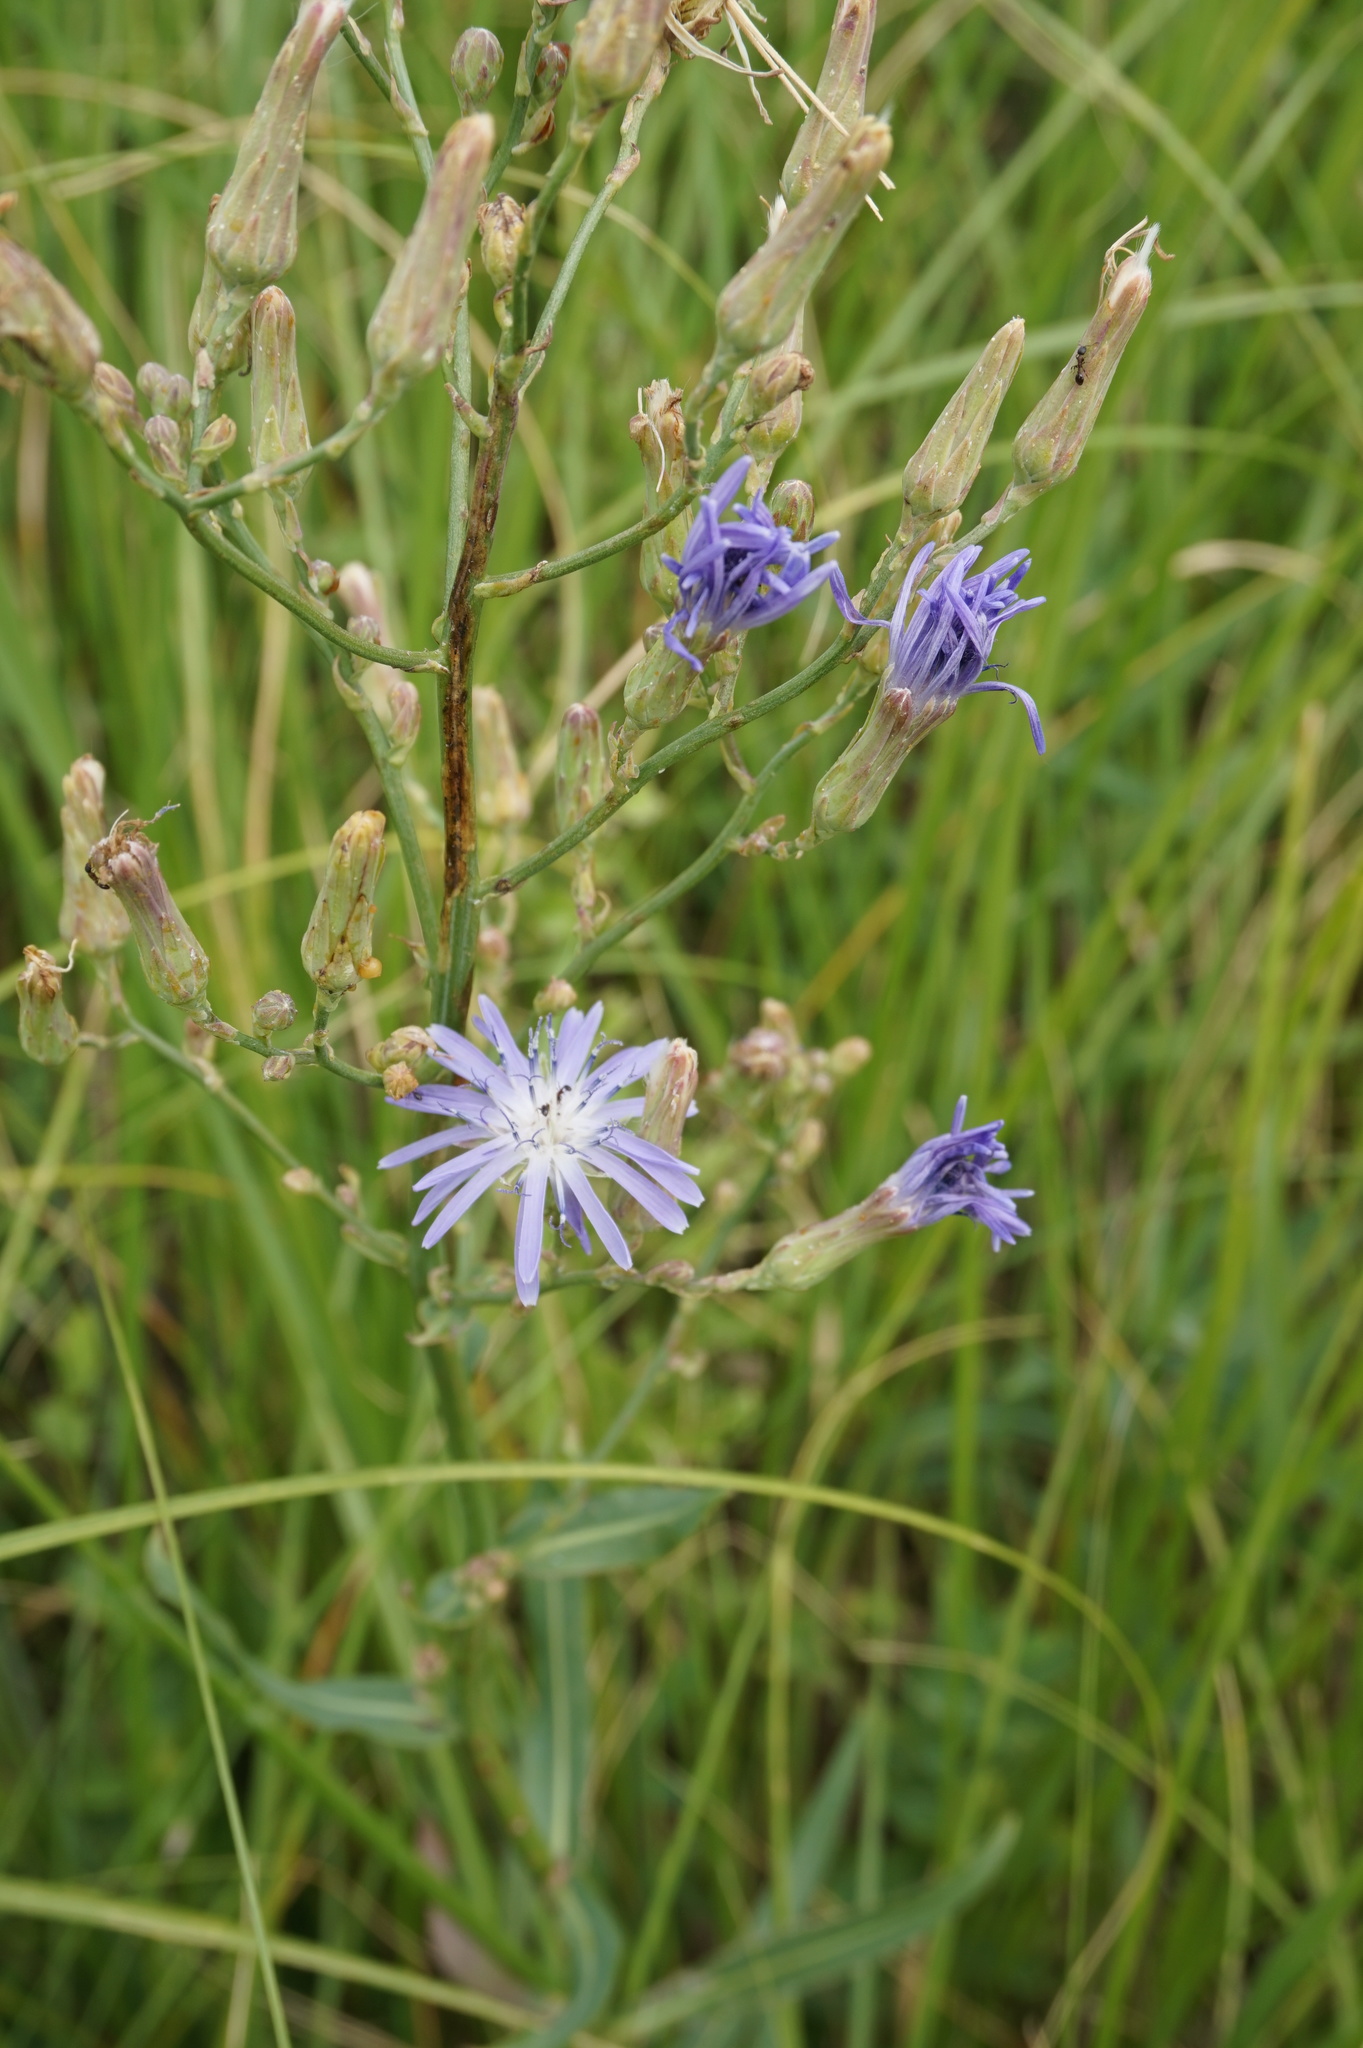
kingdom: Plantae
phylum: Tracheophyta
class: Magnoliopsida
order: Asterales
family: Asteraceae
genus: Lactuca
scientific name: Lactuca pulchella
